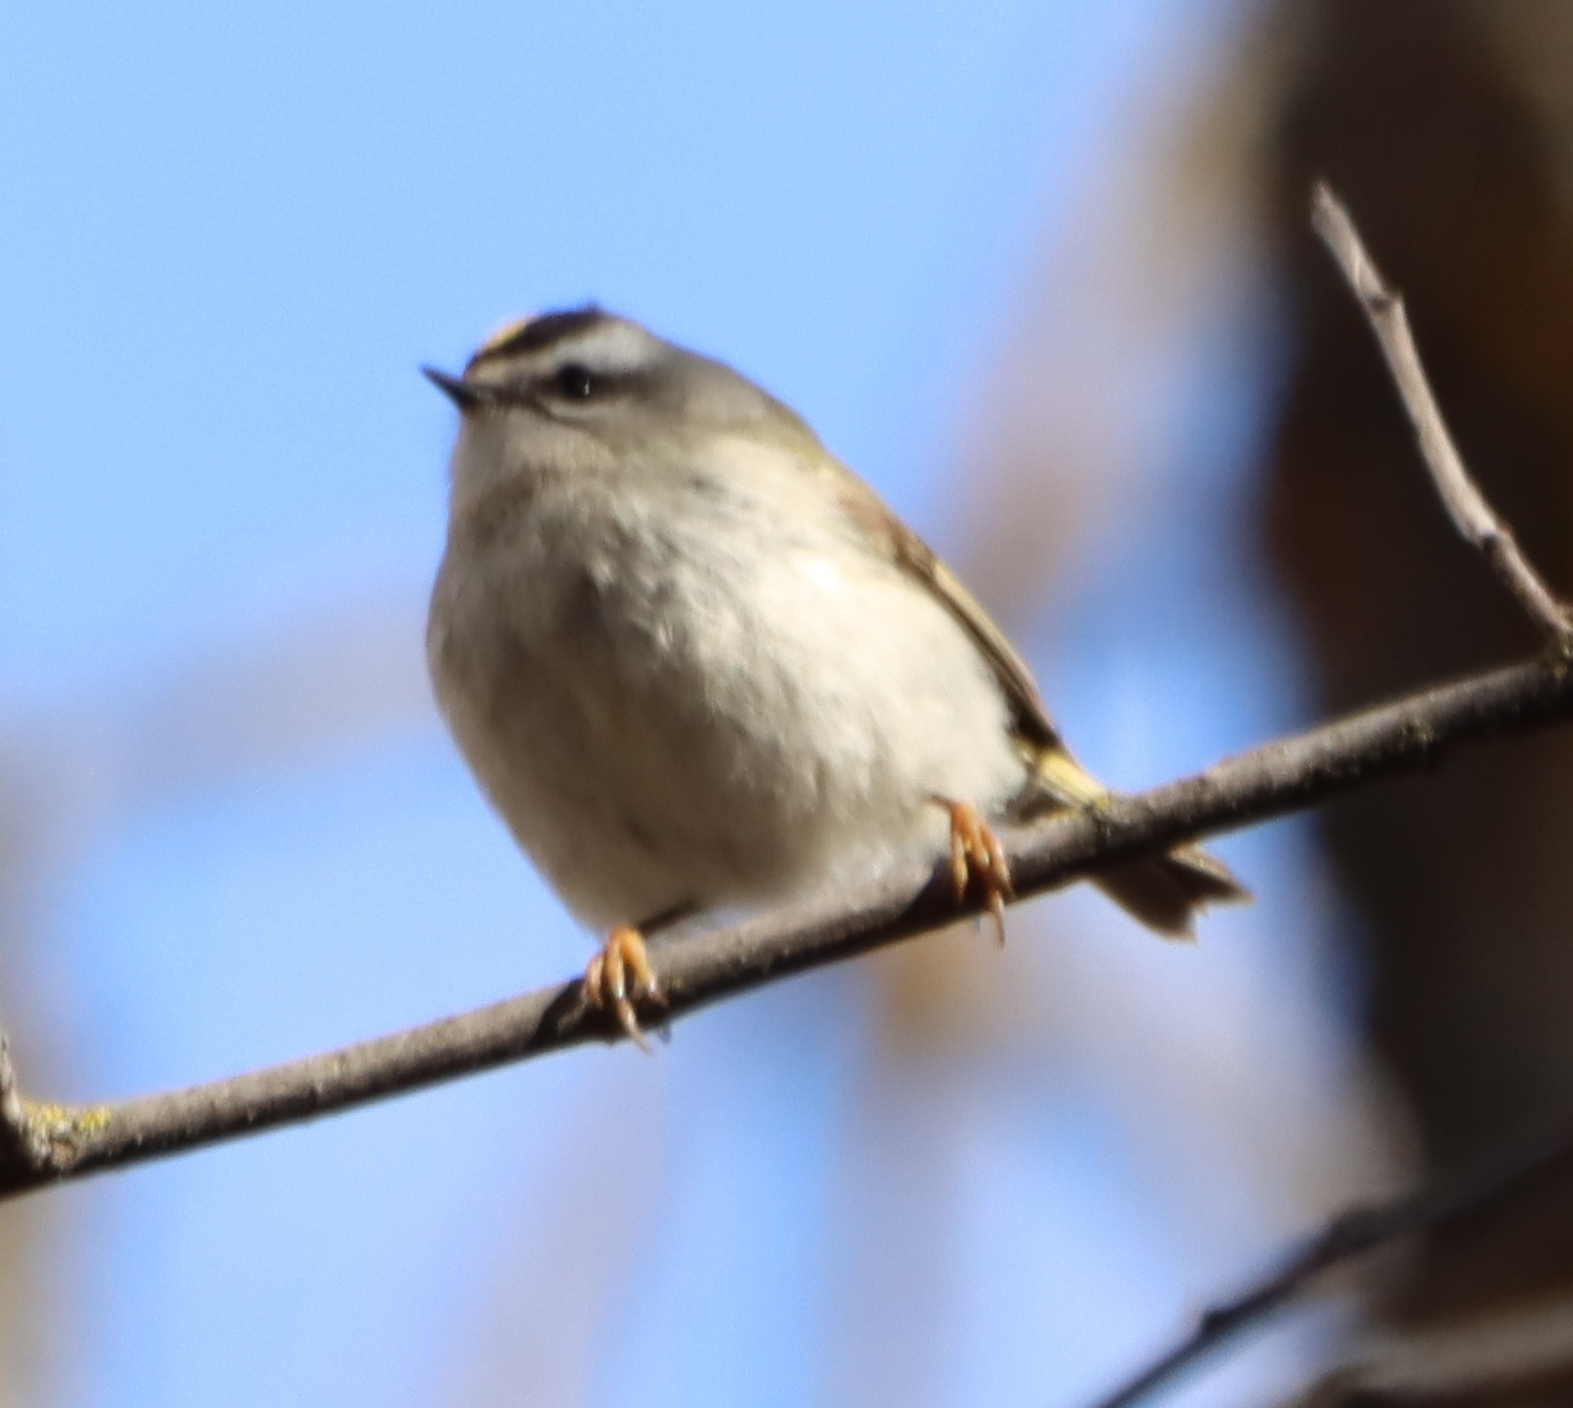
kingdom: Animalia
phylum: Chordata
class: Aves
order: Passeriformes
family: Regulidae
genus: Regulus
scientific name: Regulus satrapa
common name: Golden-crowned kinglet
